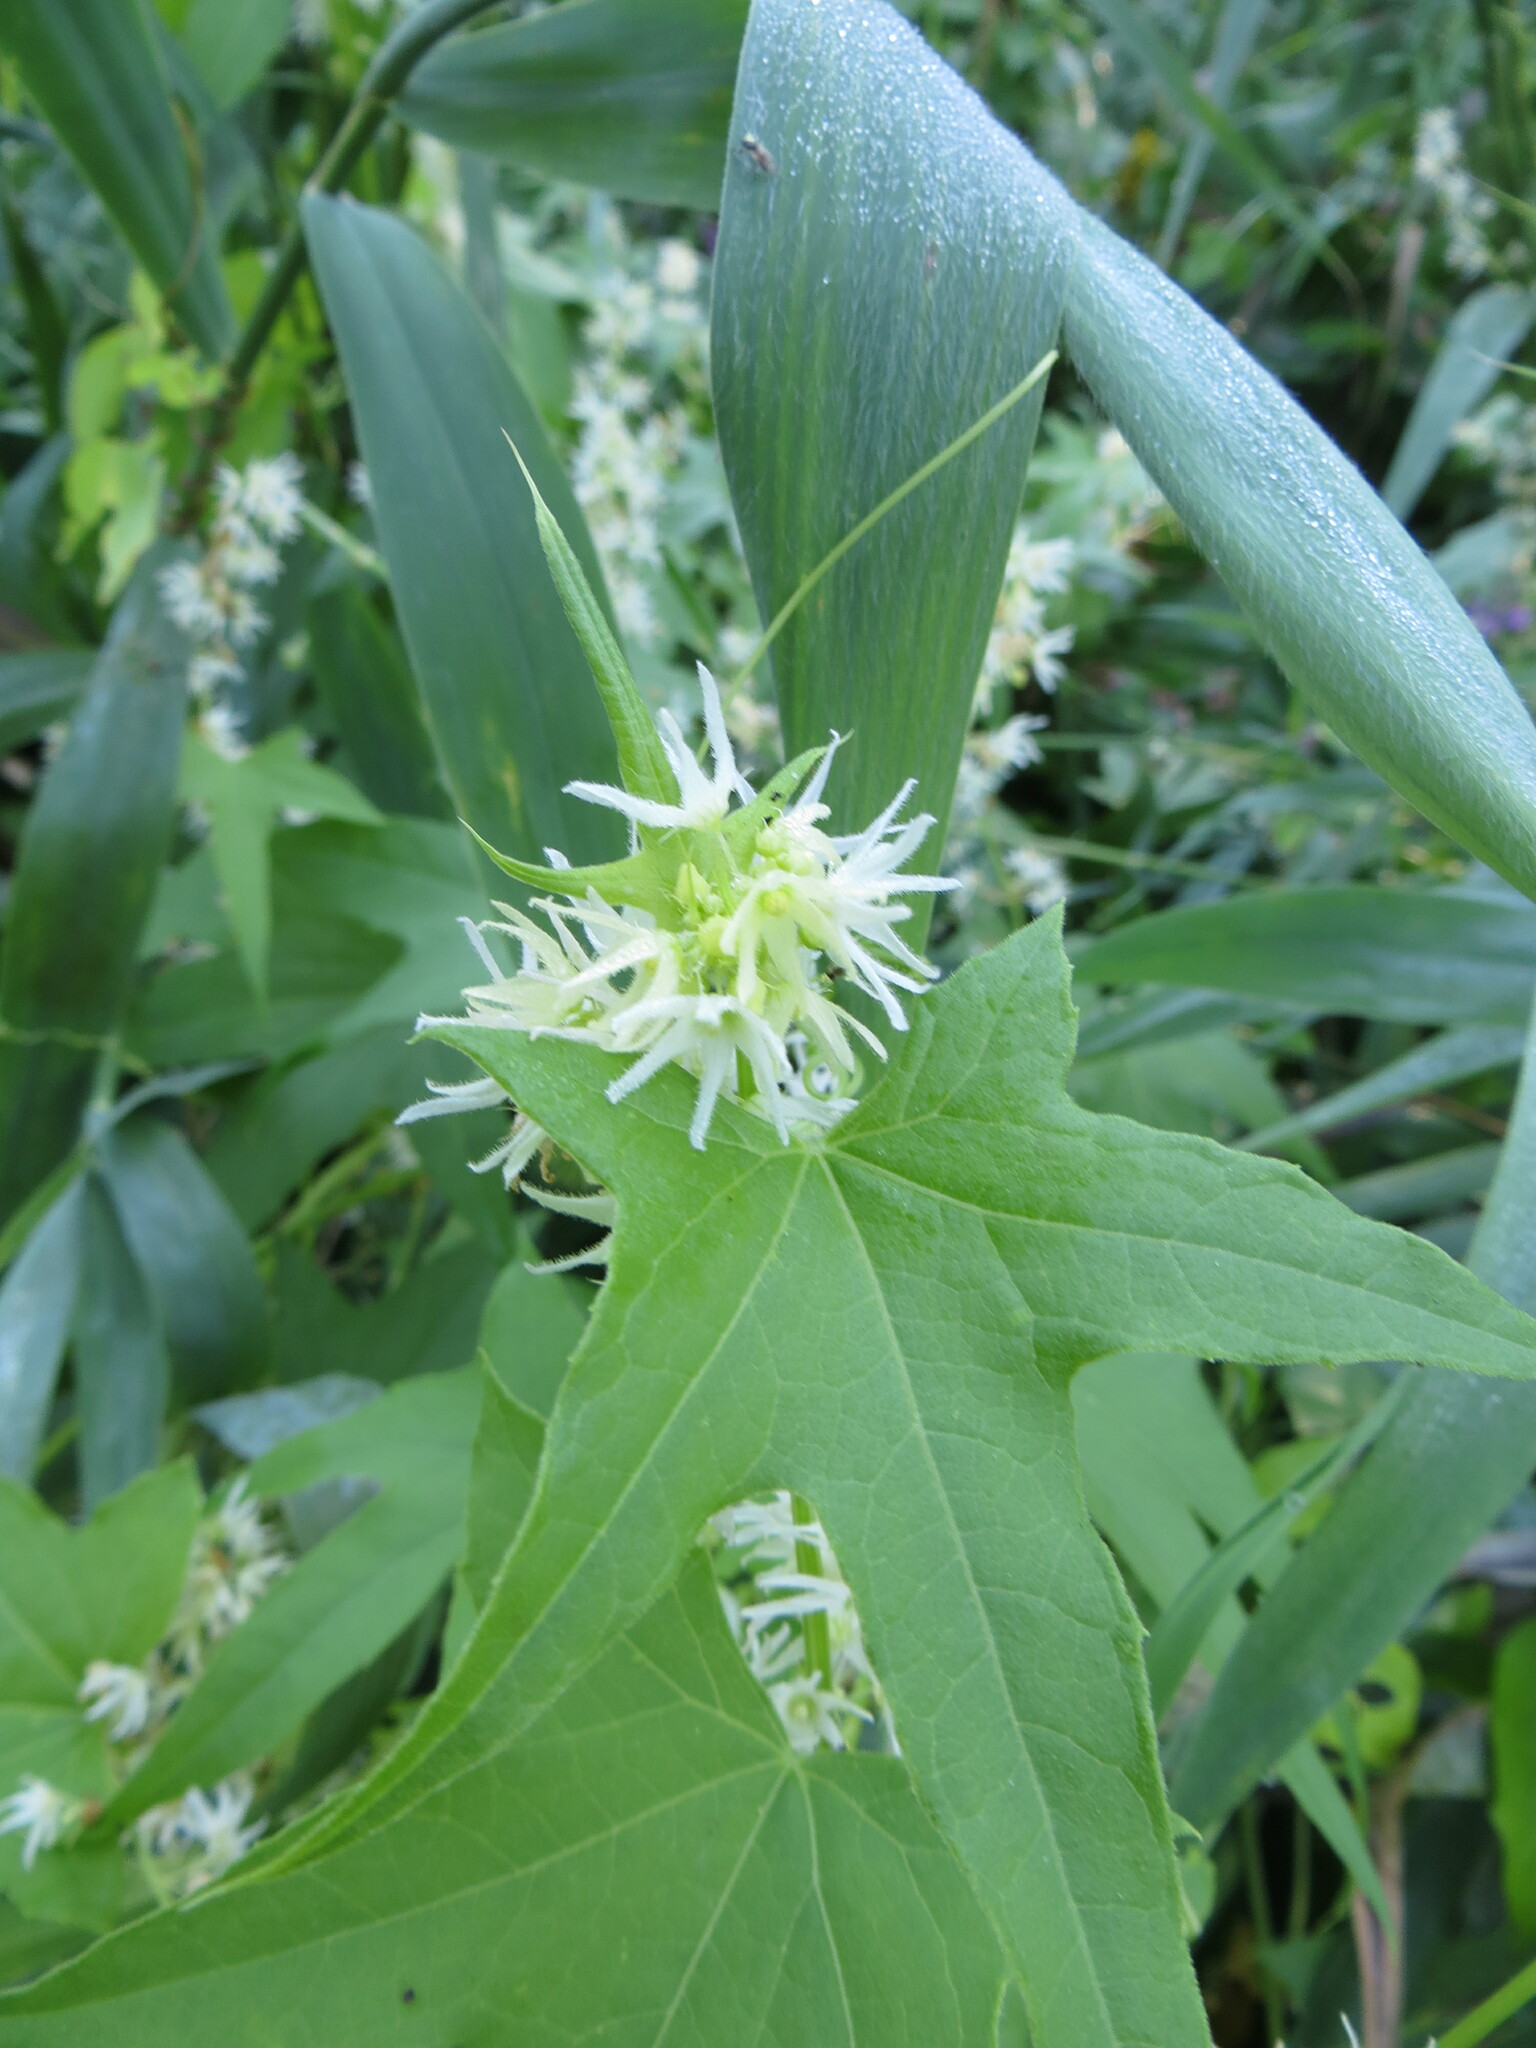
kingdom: Plantae
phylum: Tracheophyta
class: Magnoliopsida
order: Cucurbitales
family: Cucurbitaceae
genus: Echinocystis
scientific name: Echinocystis lobata
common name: Wild cucumber
